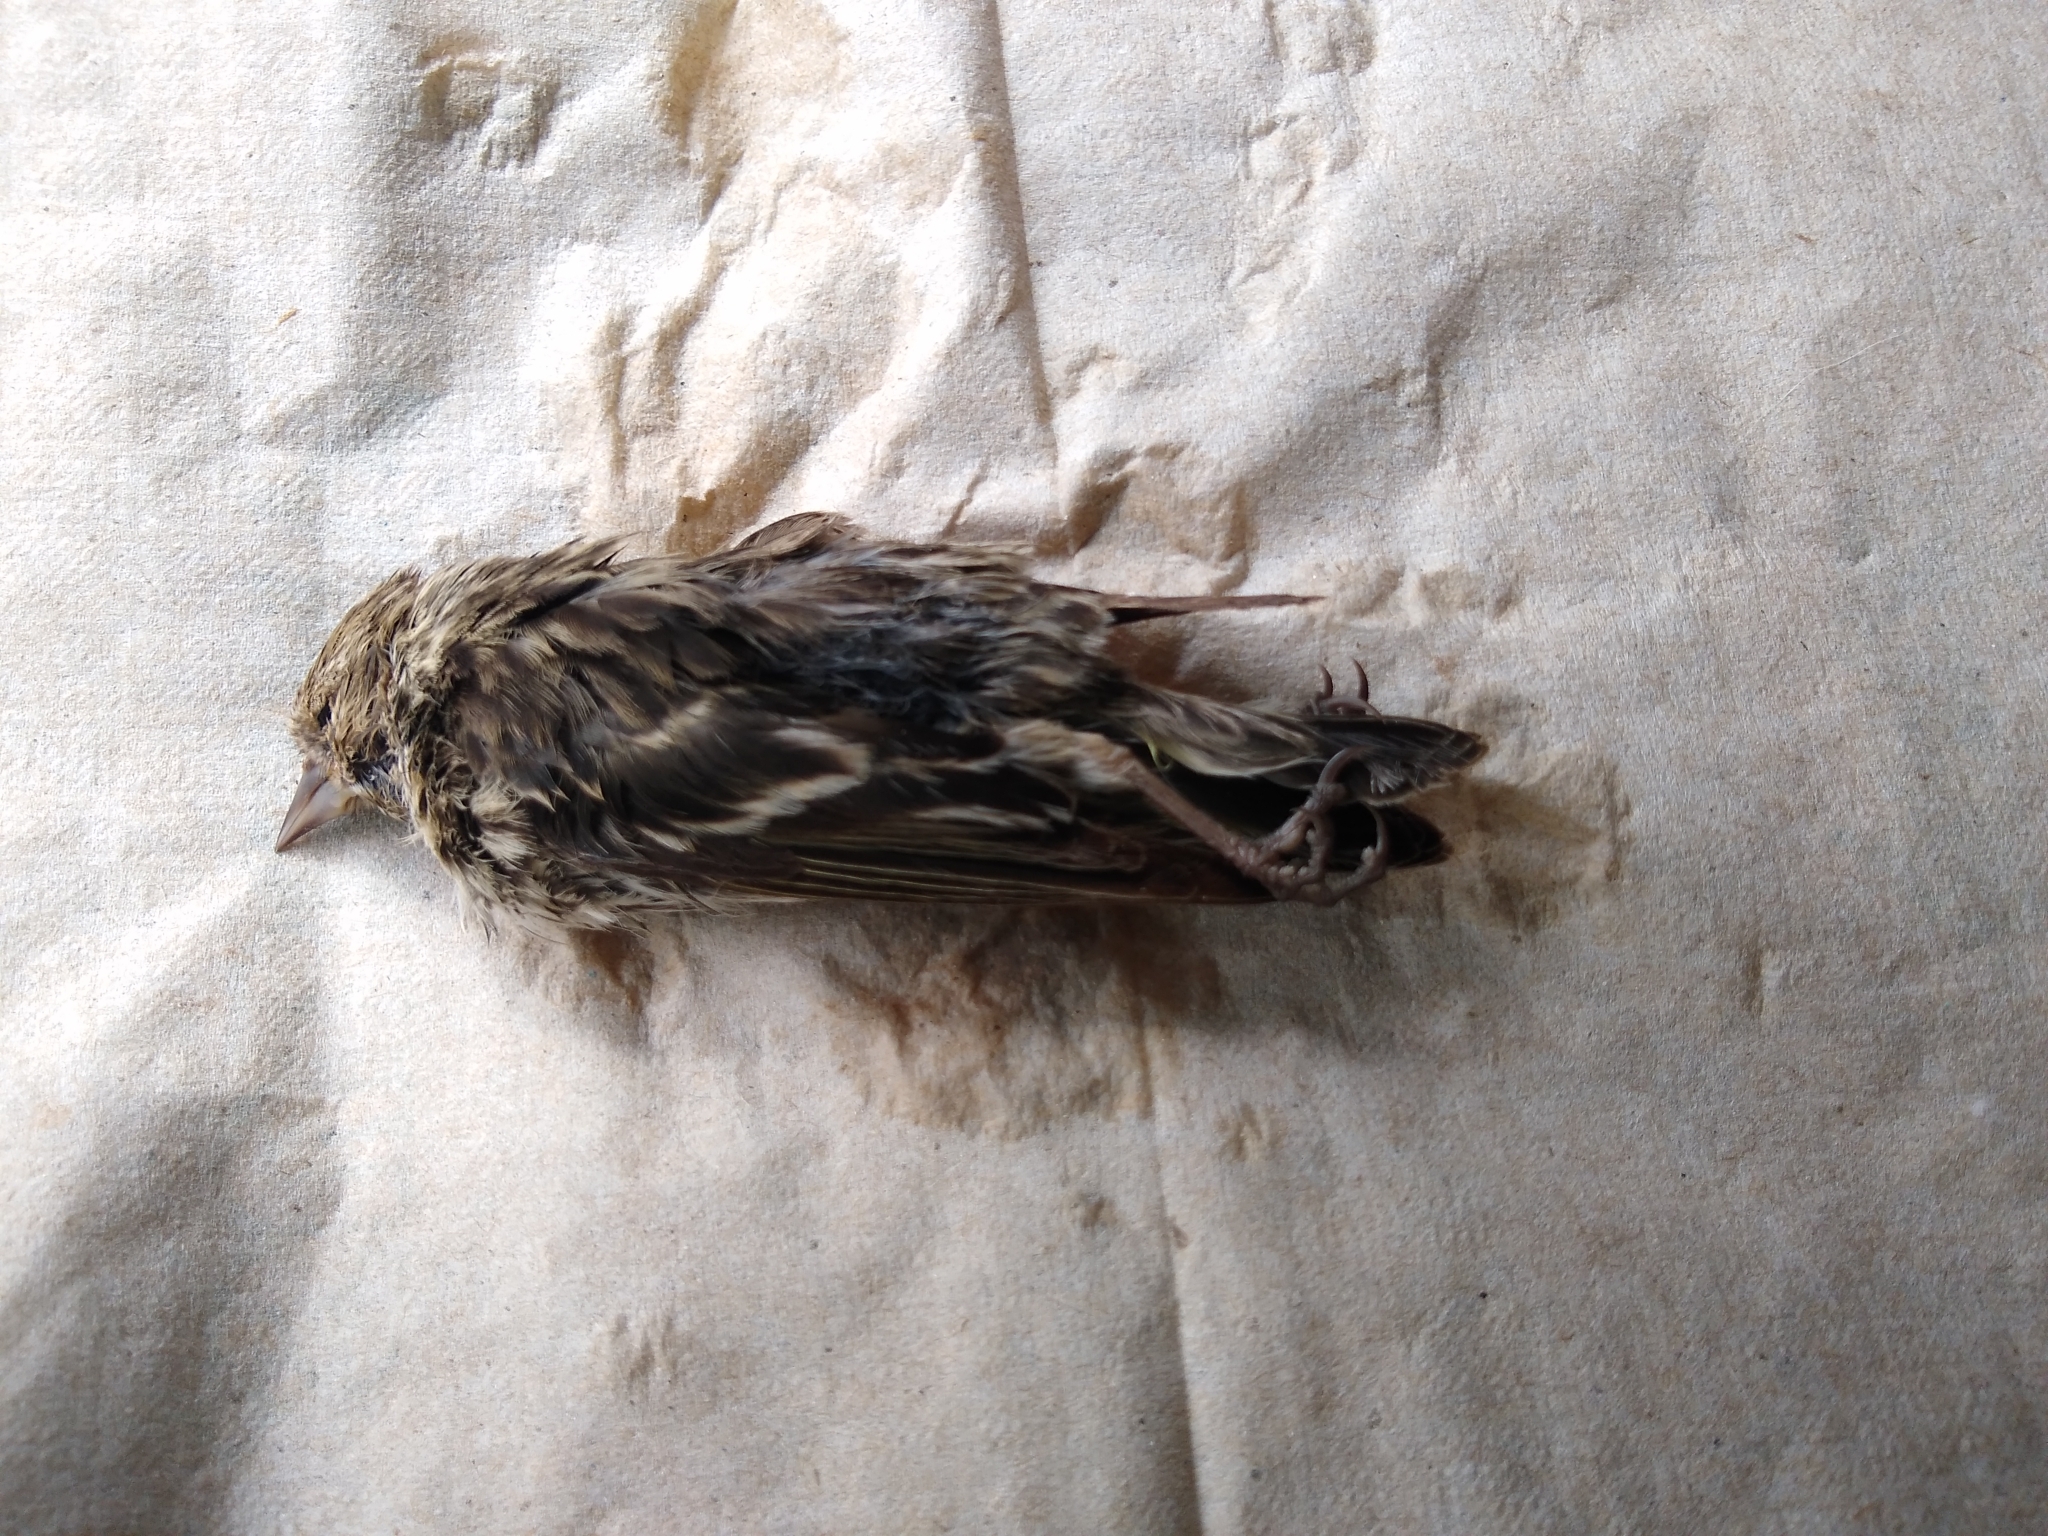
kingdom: Animalia
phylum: Chordata
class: Aves
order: Passeriformes
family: Fringillidae
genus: Spinus
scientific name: Spinus pinus
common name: Pine siskin
